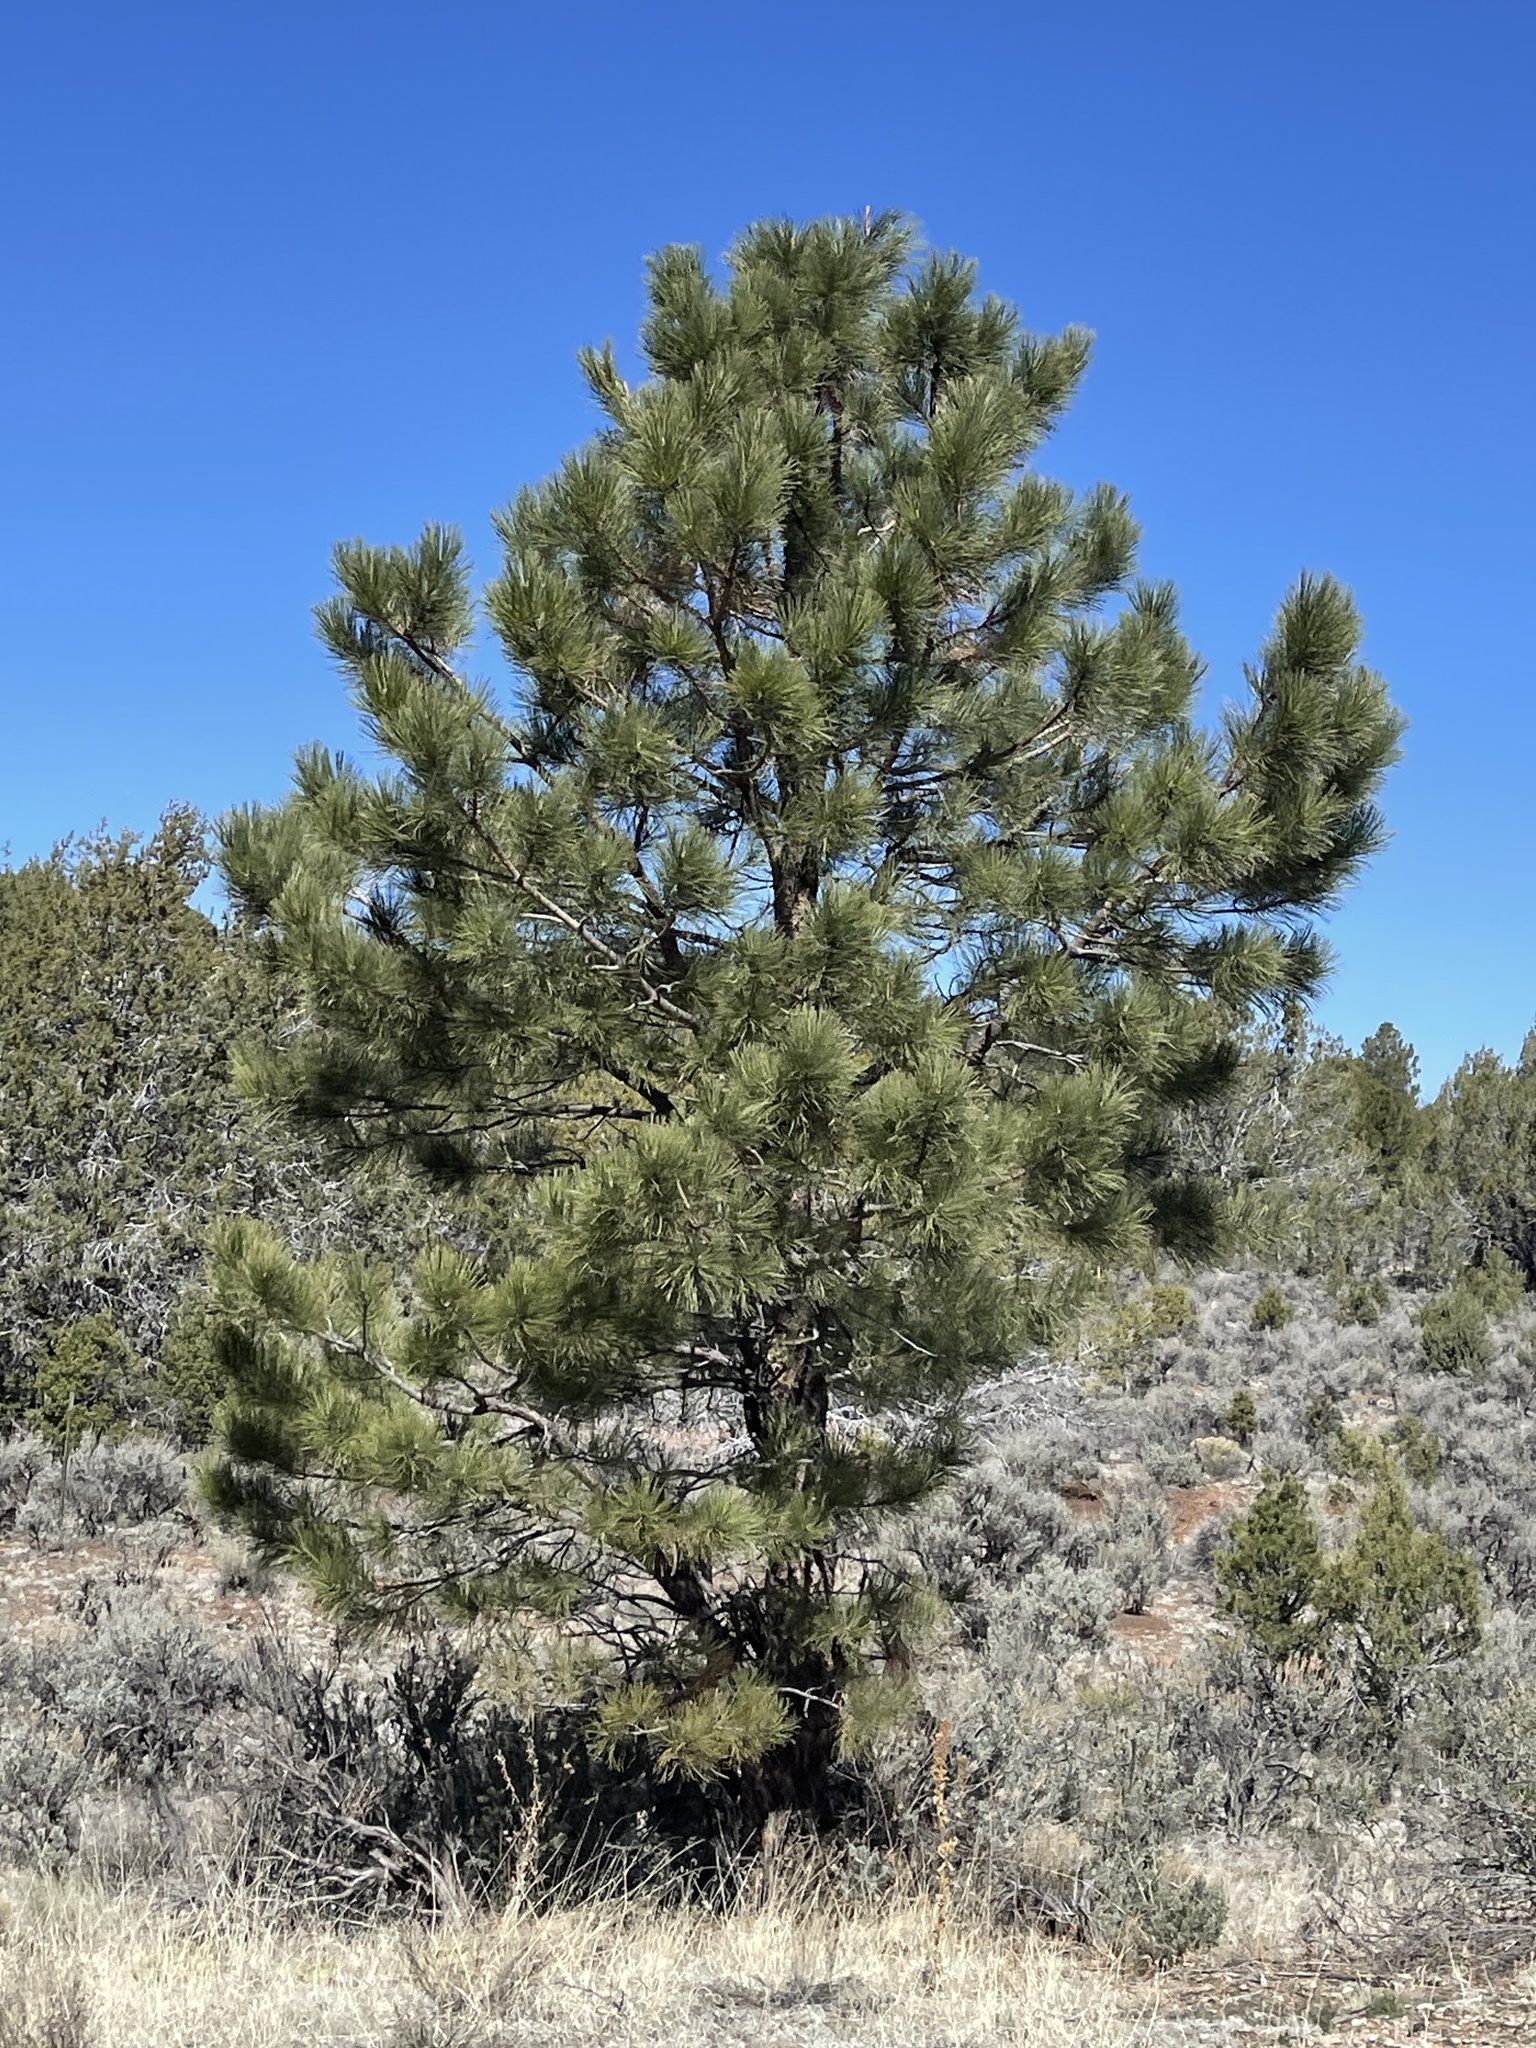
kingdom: Plantae
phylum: Tracheophyta
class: Pinopsida
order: Pinales
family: Pinaceae
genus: Pinus
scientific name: Pinus ponderosa
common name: Western yellow-pine
